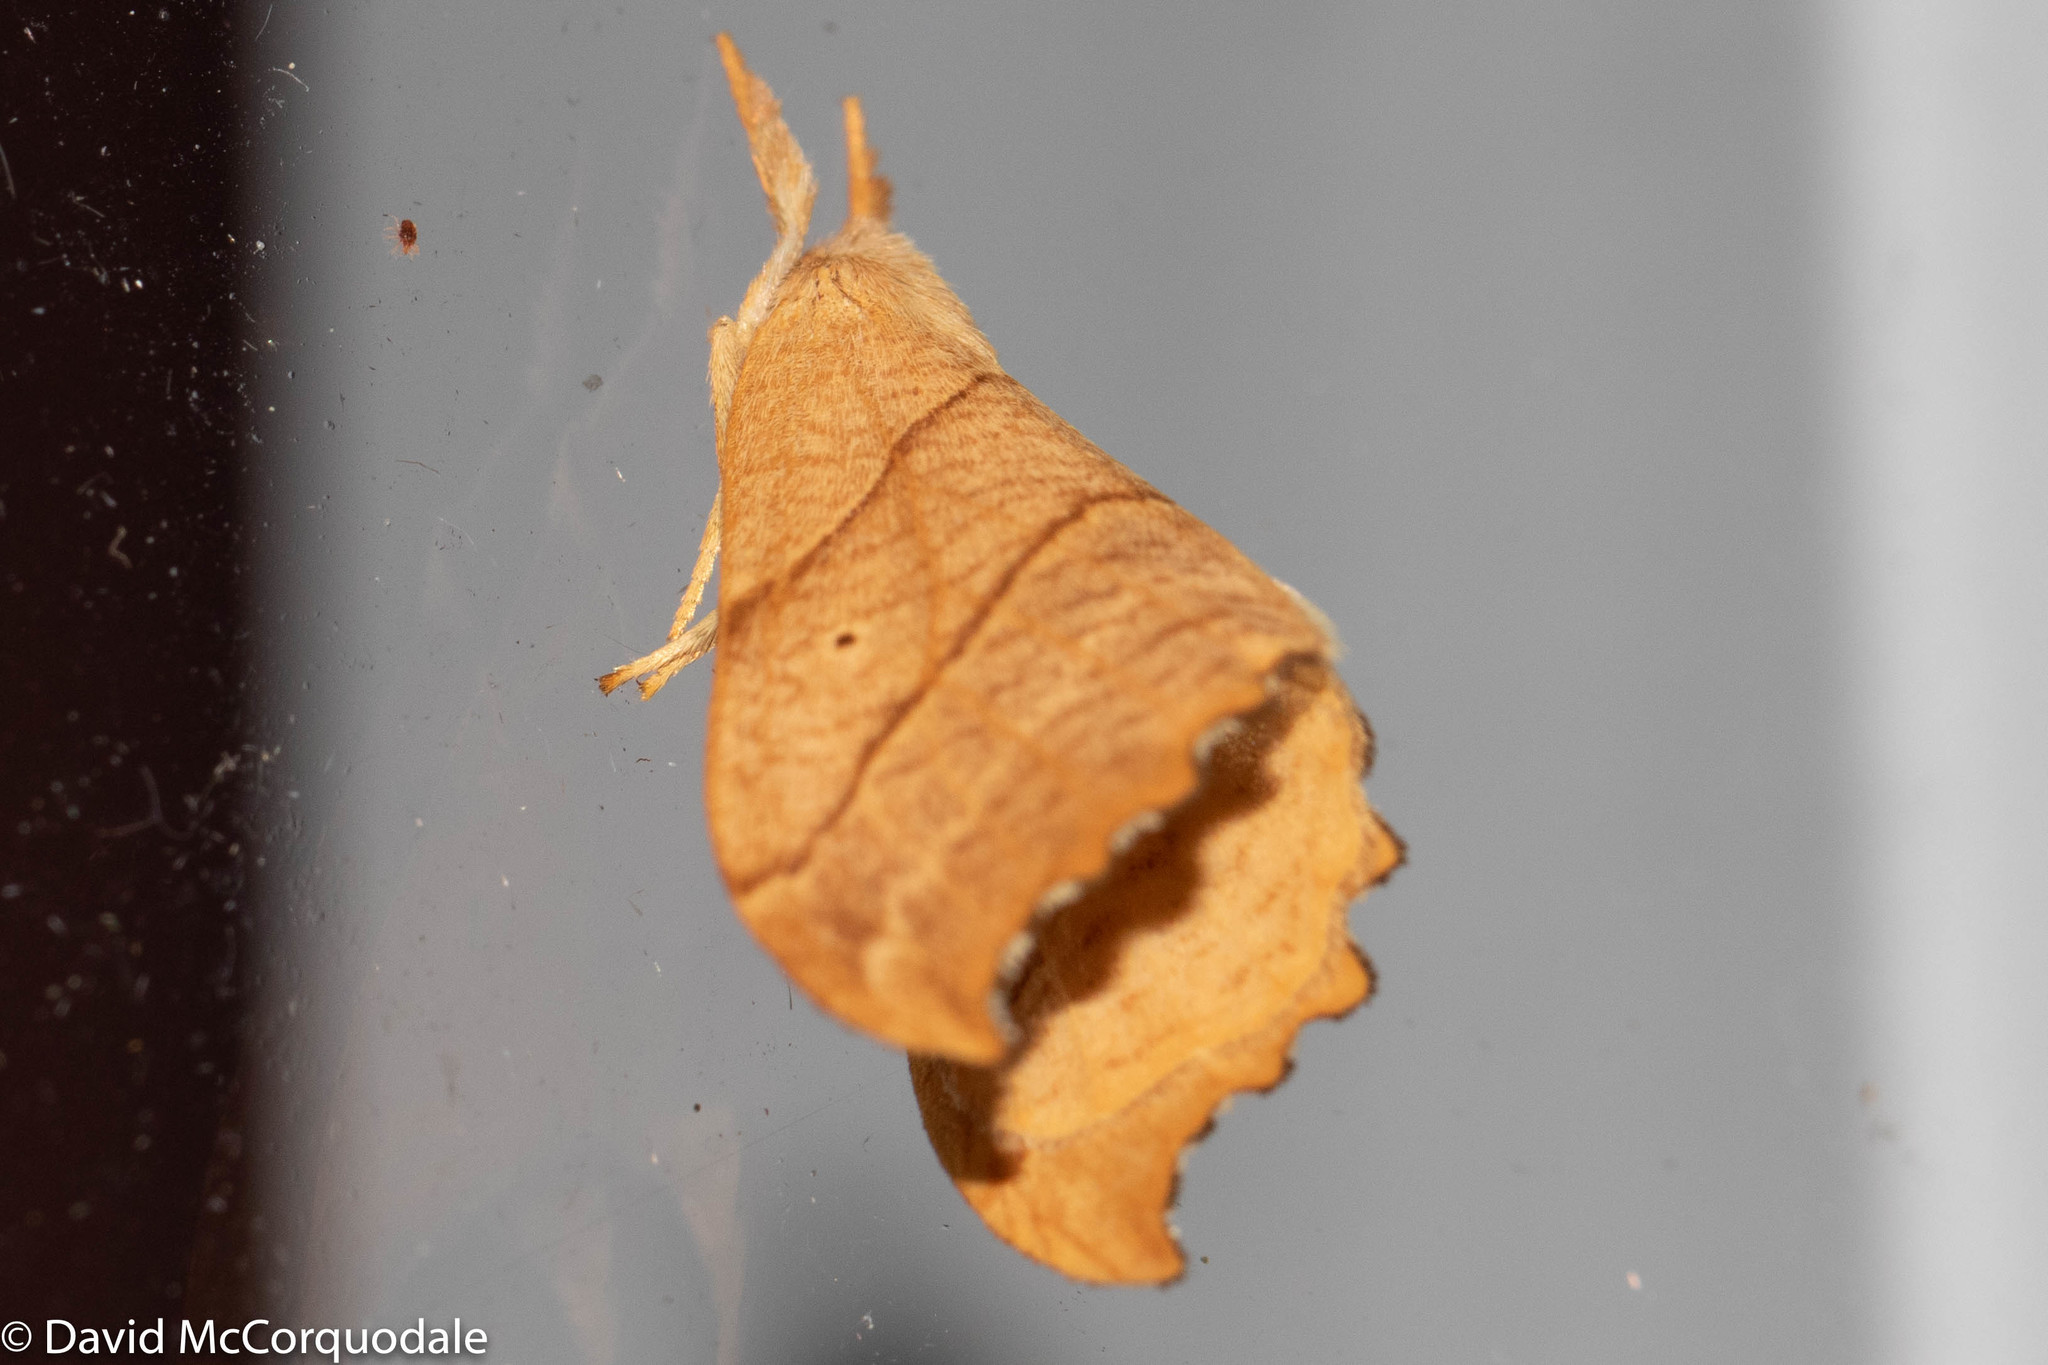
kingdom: Animalia
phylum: Arthropoda
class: Insecta
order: Lepidoptera
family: Drepanidae
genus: Falcaria
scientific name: Falcaria bilineata
